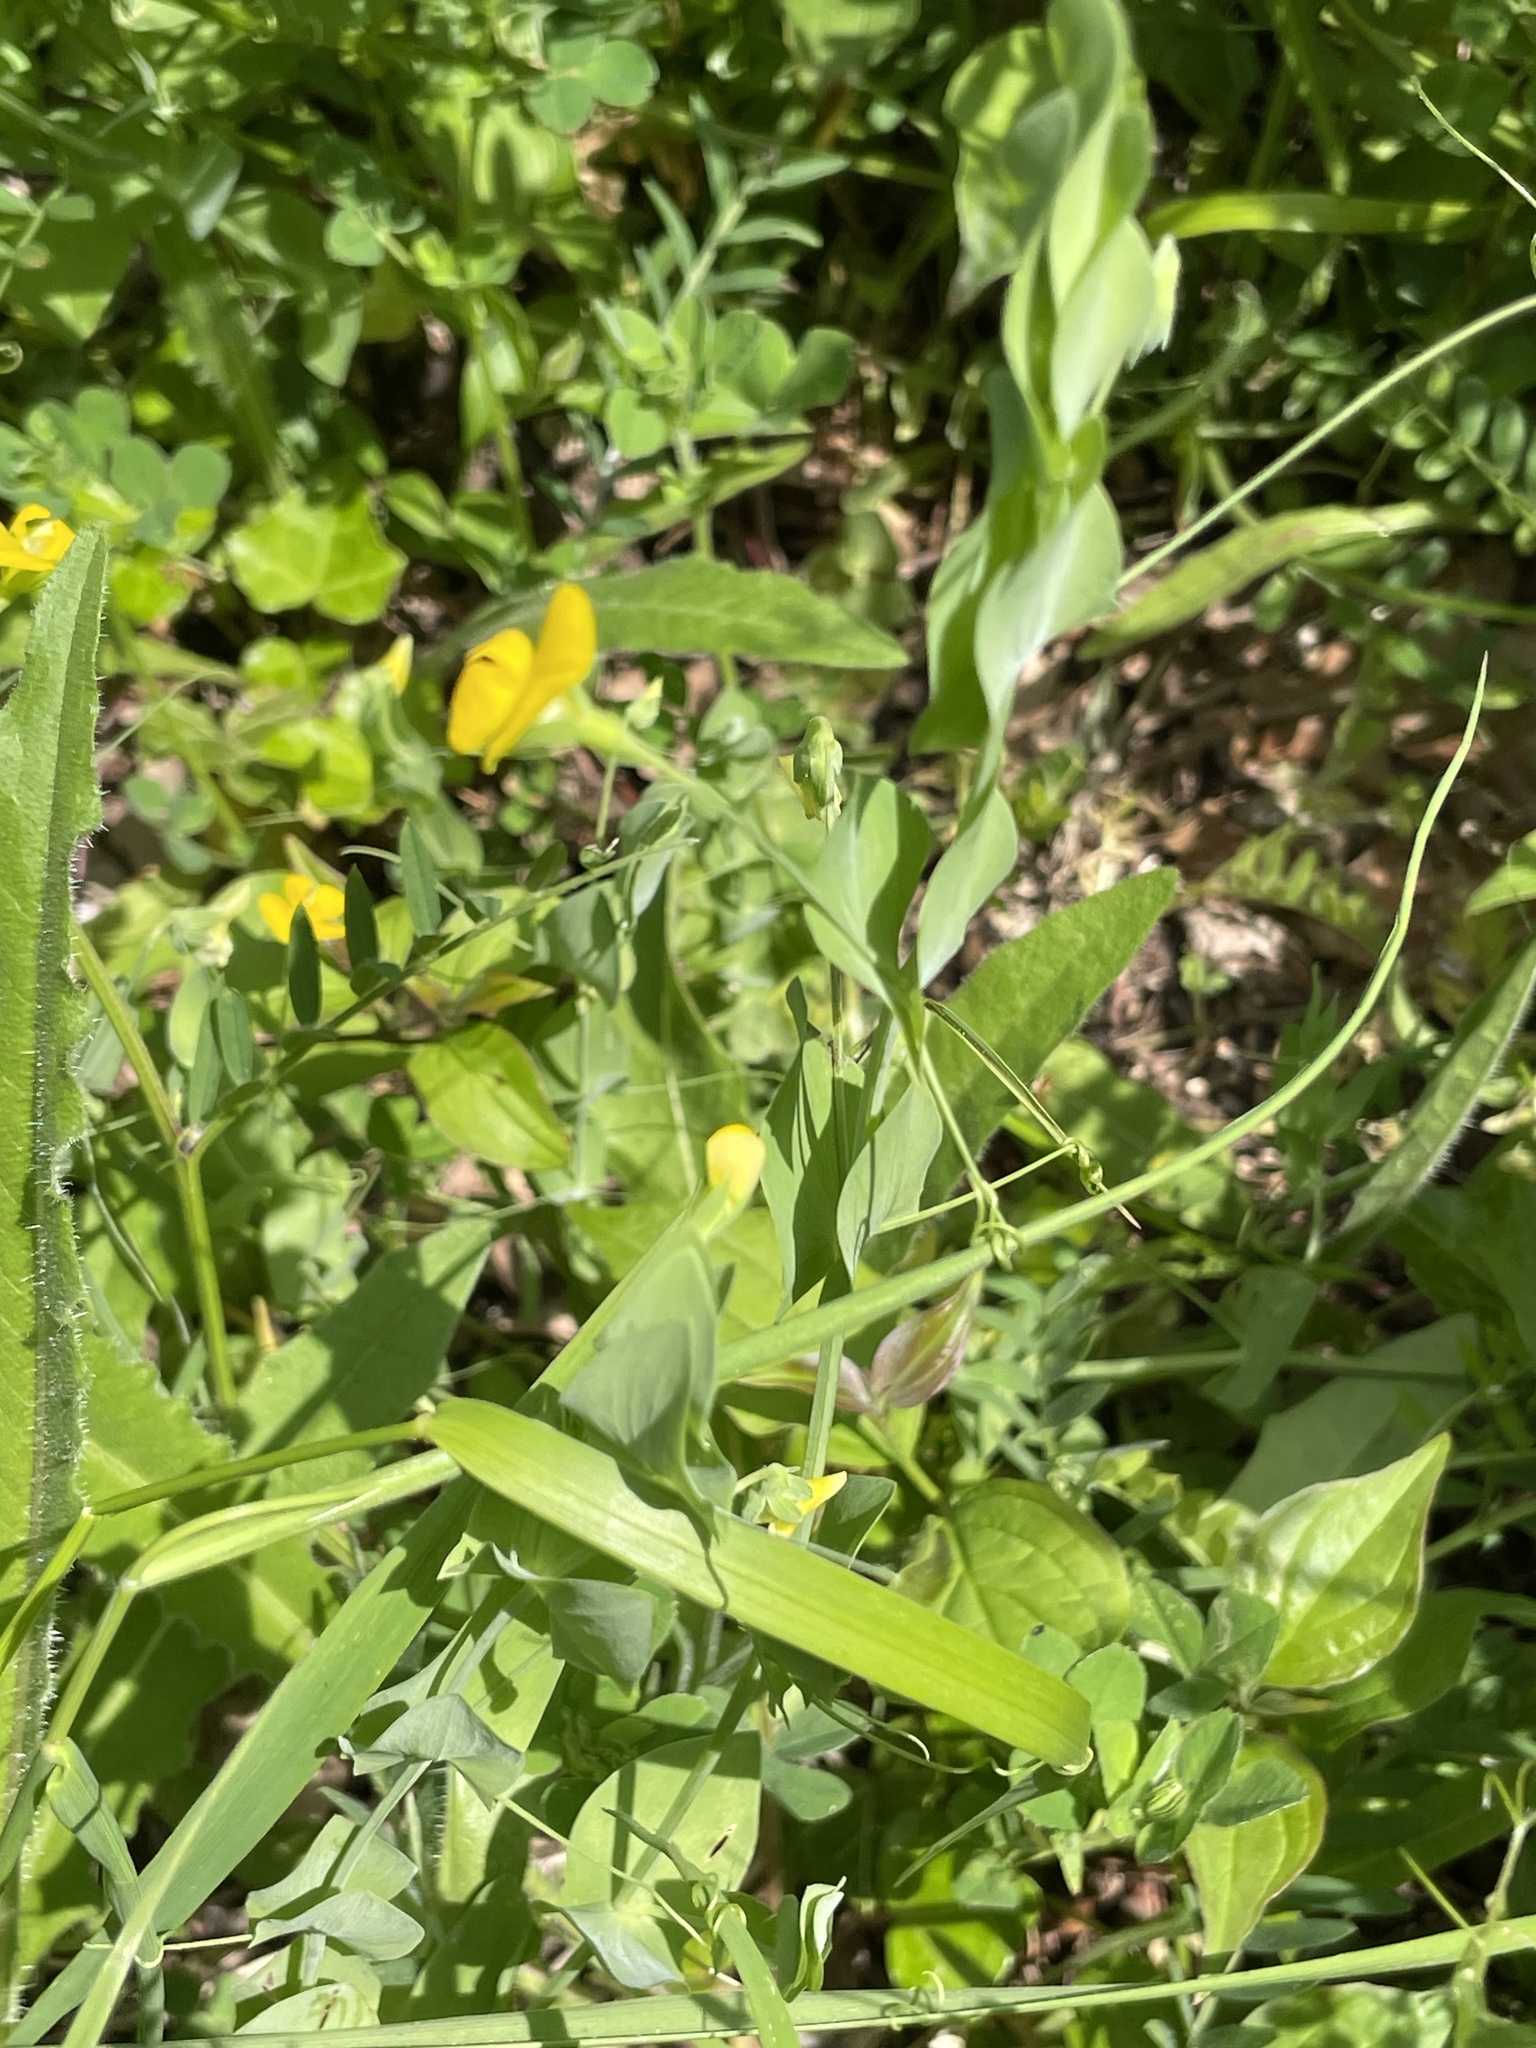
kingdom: Plantae
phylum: Tracheophyta
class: Magnoliopsida
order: Fabales
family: Fabaceae
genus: Lathyrus
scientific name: Lathyrus aphaca
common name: Yellow vetchling
